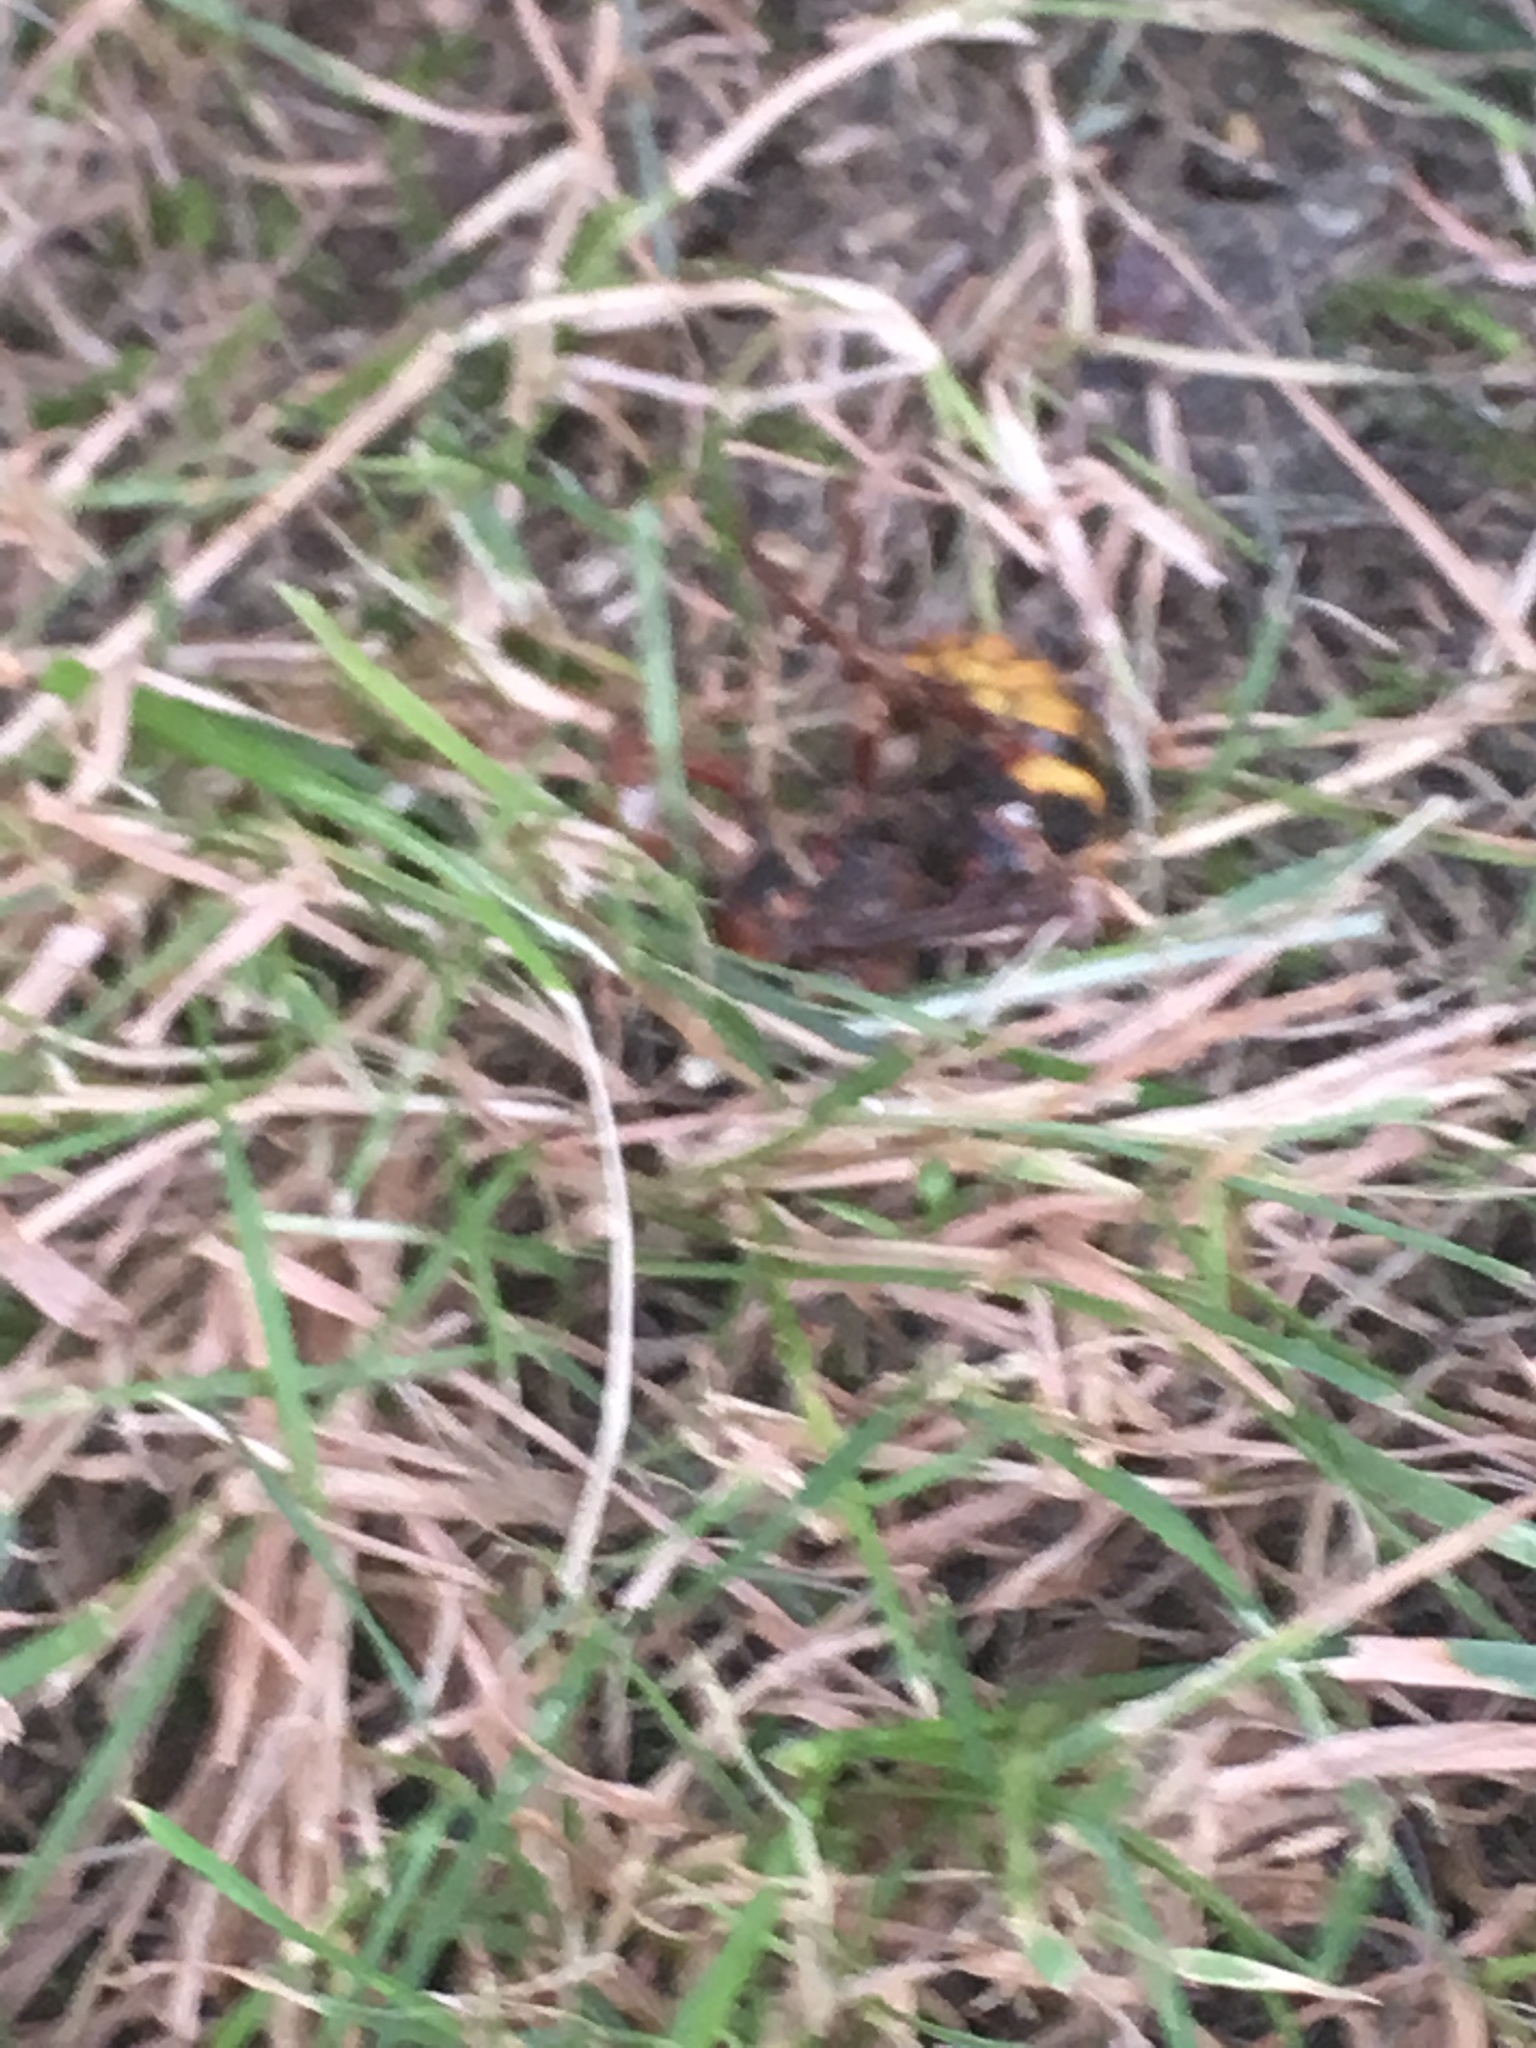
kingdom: Animalia
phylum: Arthropoda
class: Insecta
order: Hymenoptera
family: Vespidae
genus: Vespa
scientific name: Vespa crabro
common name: Hornet
